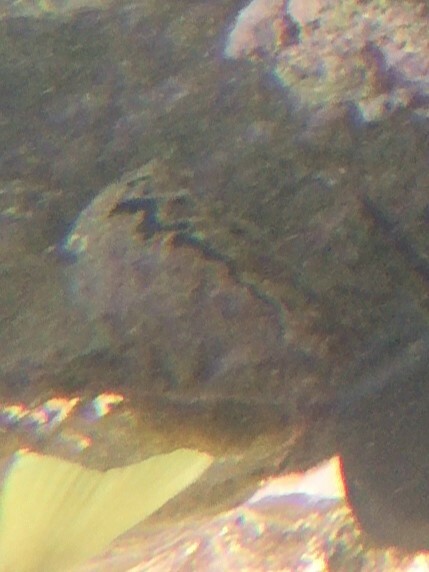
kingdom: Animalia
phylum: Mollusca
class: Bivalvia
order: Ostreida
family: Gryphaeidae
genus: Hyotissa
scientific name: Hyotissa hyotis
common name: Giant honeycomb oyster
